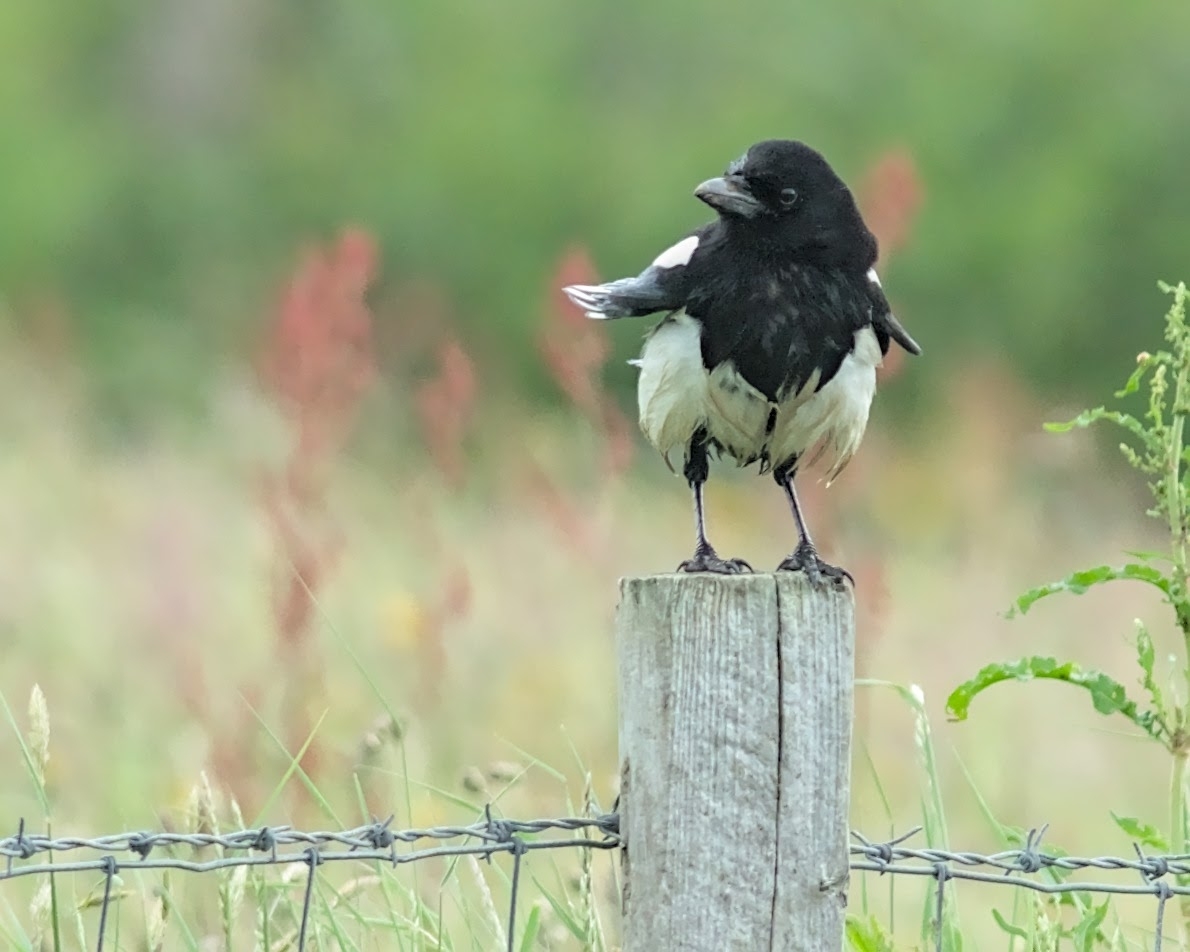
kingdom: Animalia
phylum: Chordata
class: Aves
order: Passeriformes
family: Corvidae
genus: Pica
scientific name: Pica pica
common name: Eurasian magpie
